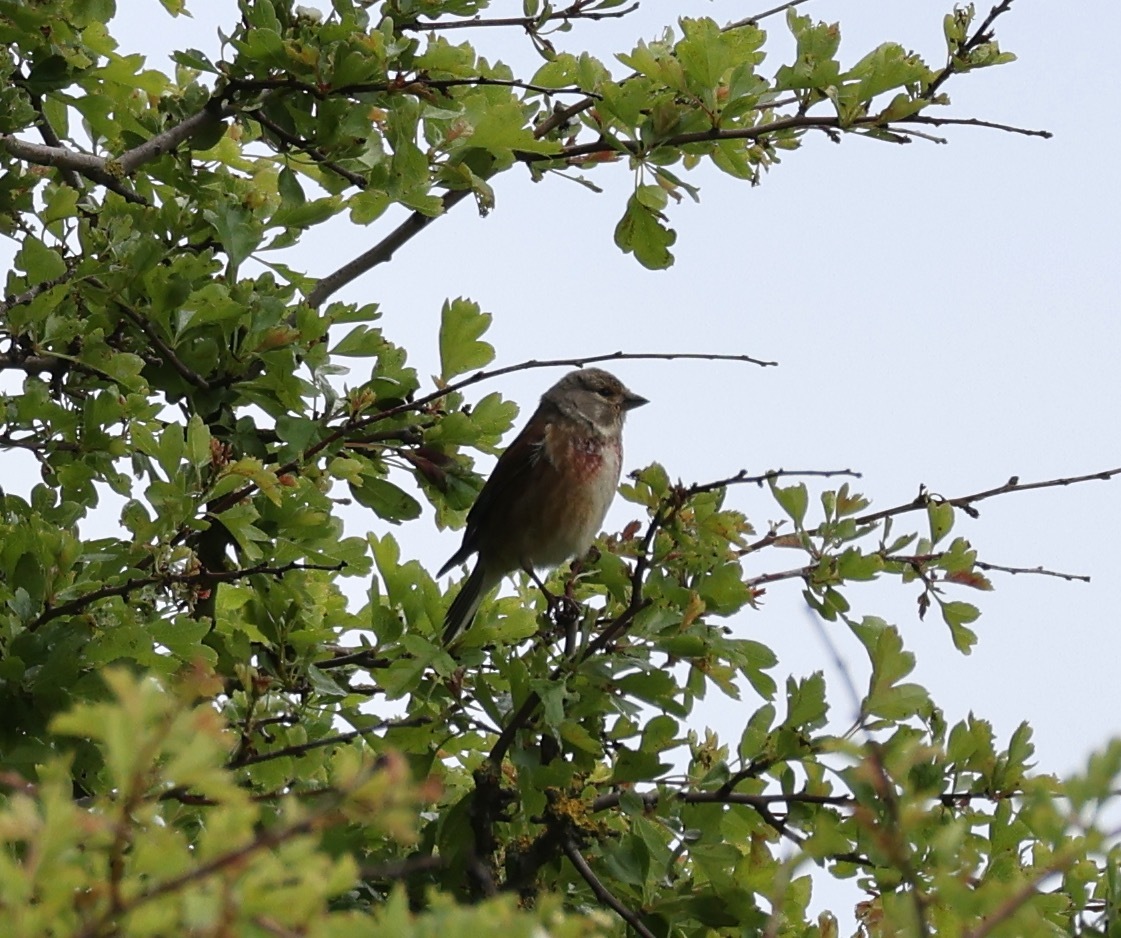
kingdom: Animalia
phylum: Chordata
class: Aves
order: Passeriformes
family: Fringillidae
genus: Linaria
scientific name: Linaria cannabina
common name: Common linnet
